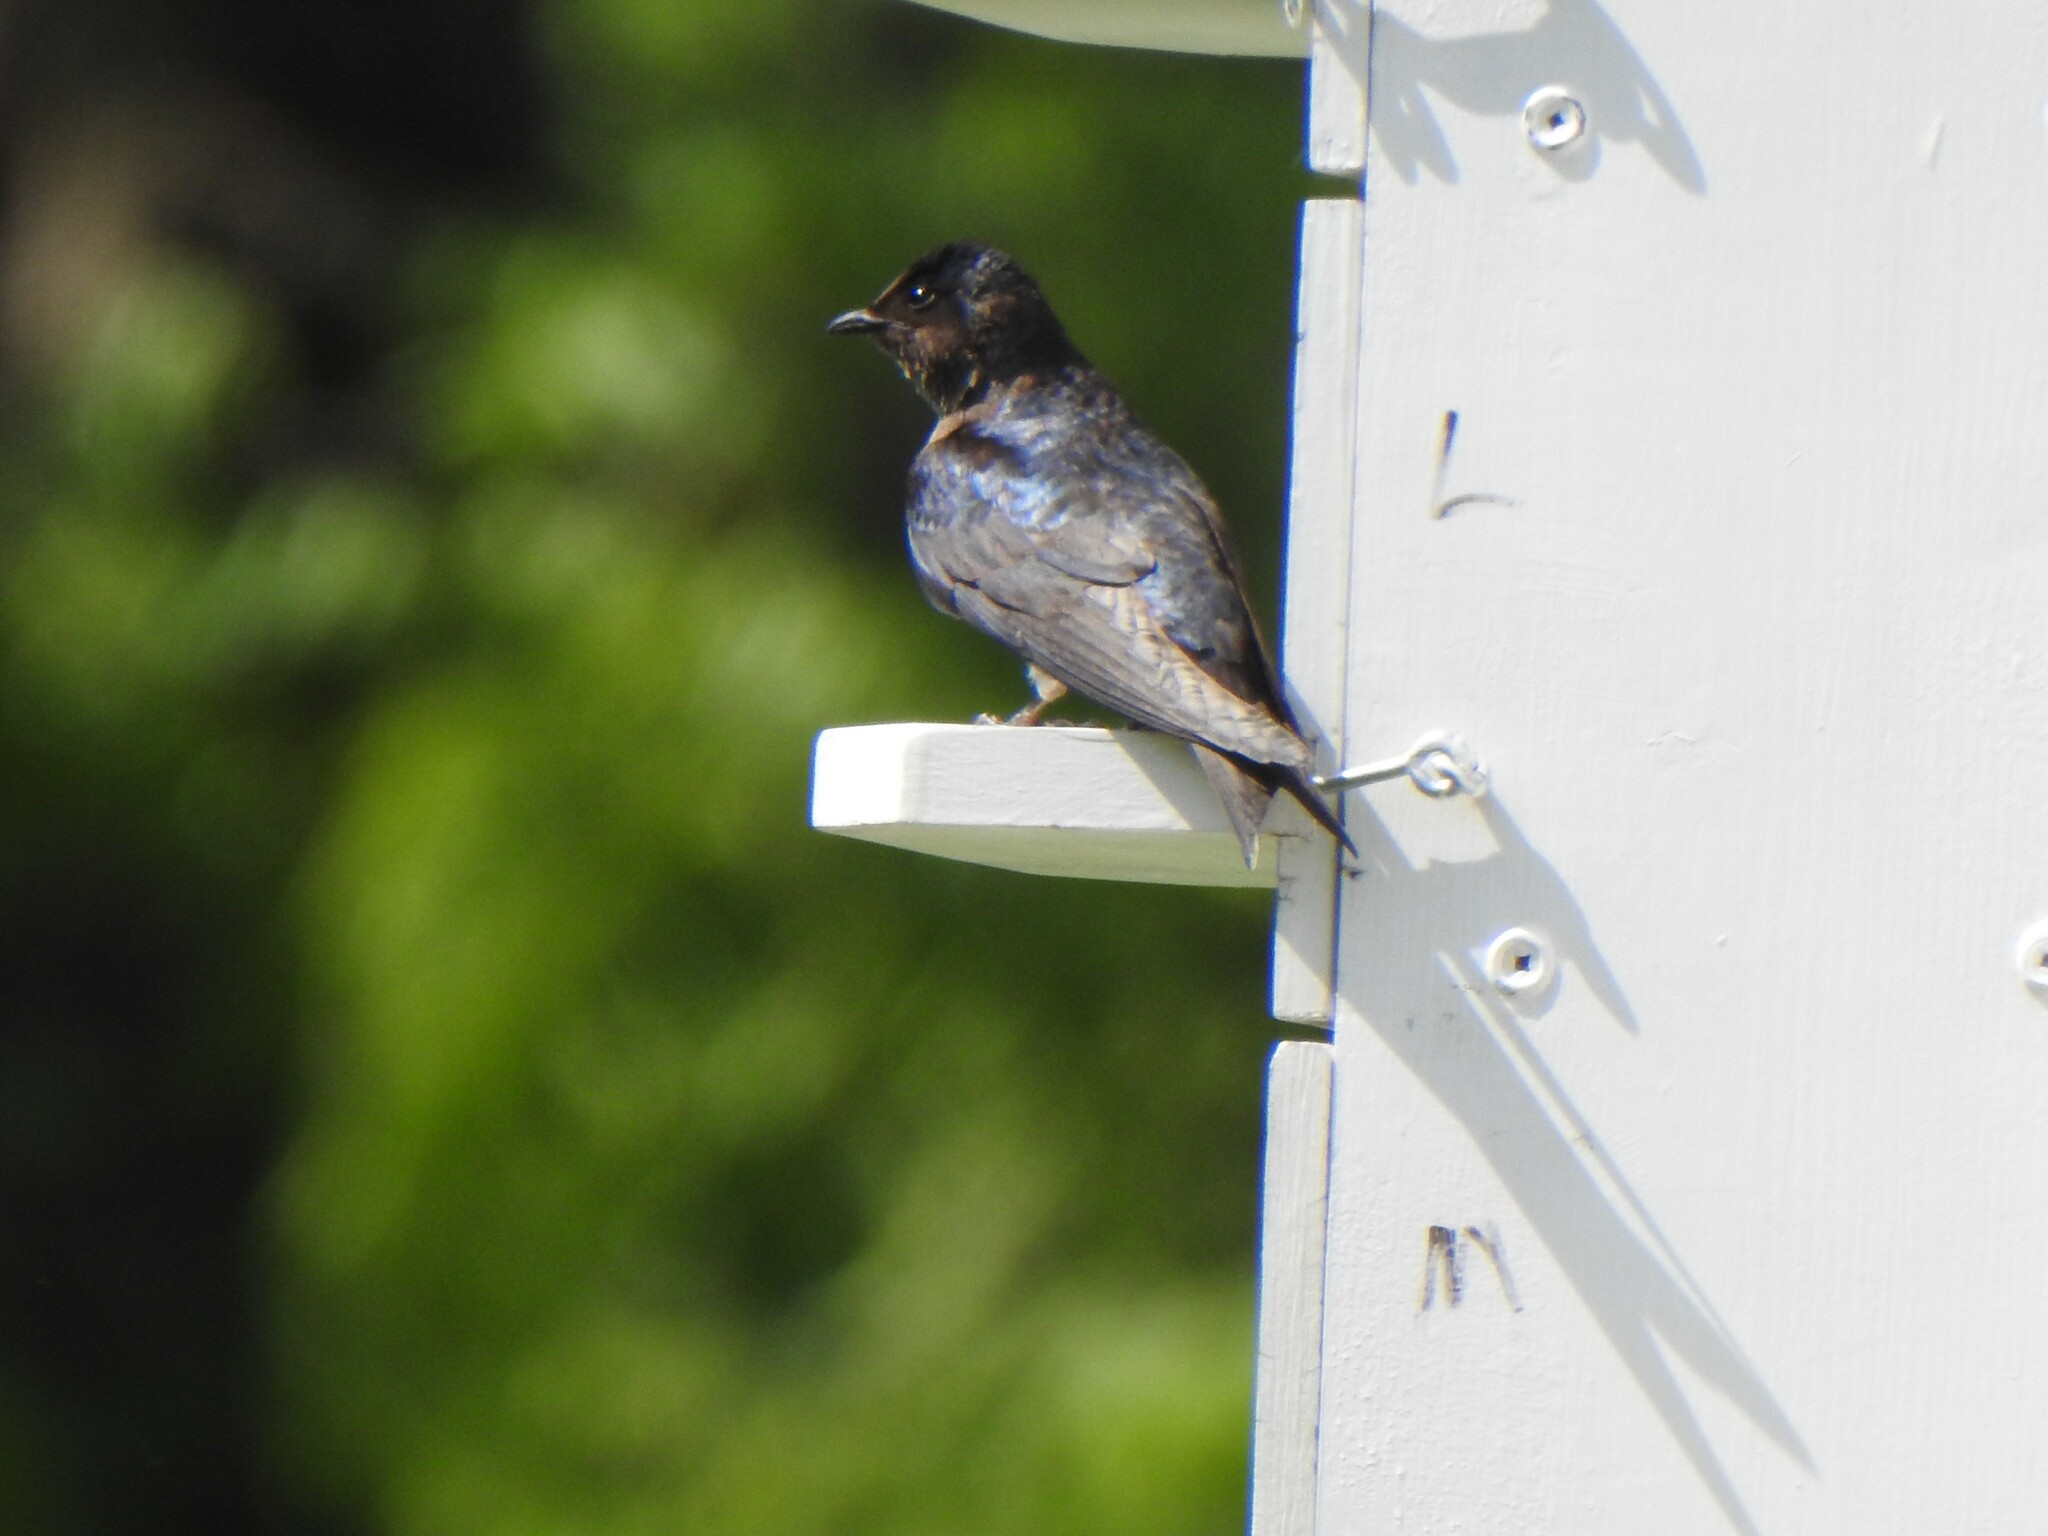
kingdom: Animalia
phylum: Chordata
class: Aves
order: Passeriformes
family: Hirundinidae
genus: Progne
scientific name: Progne subis
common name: Purple martin
